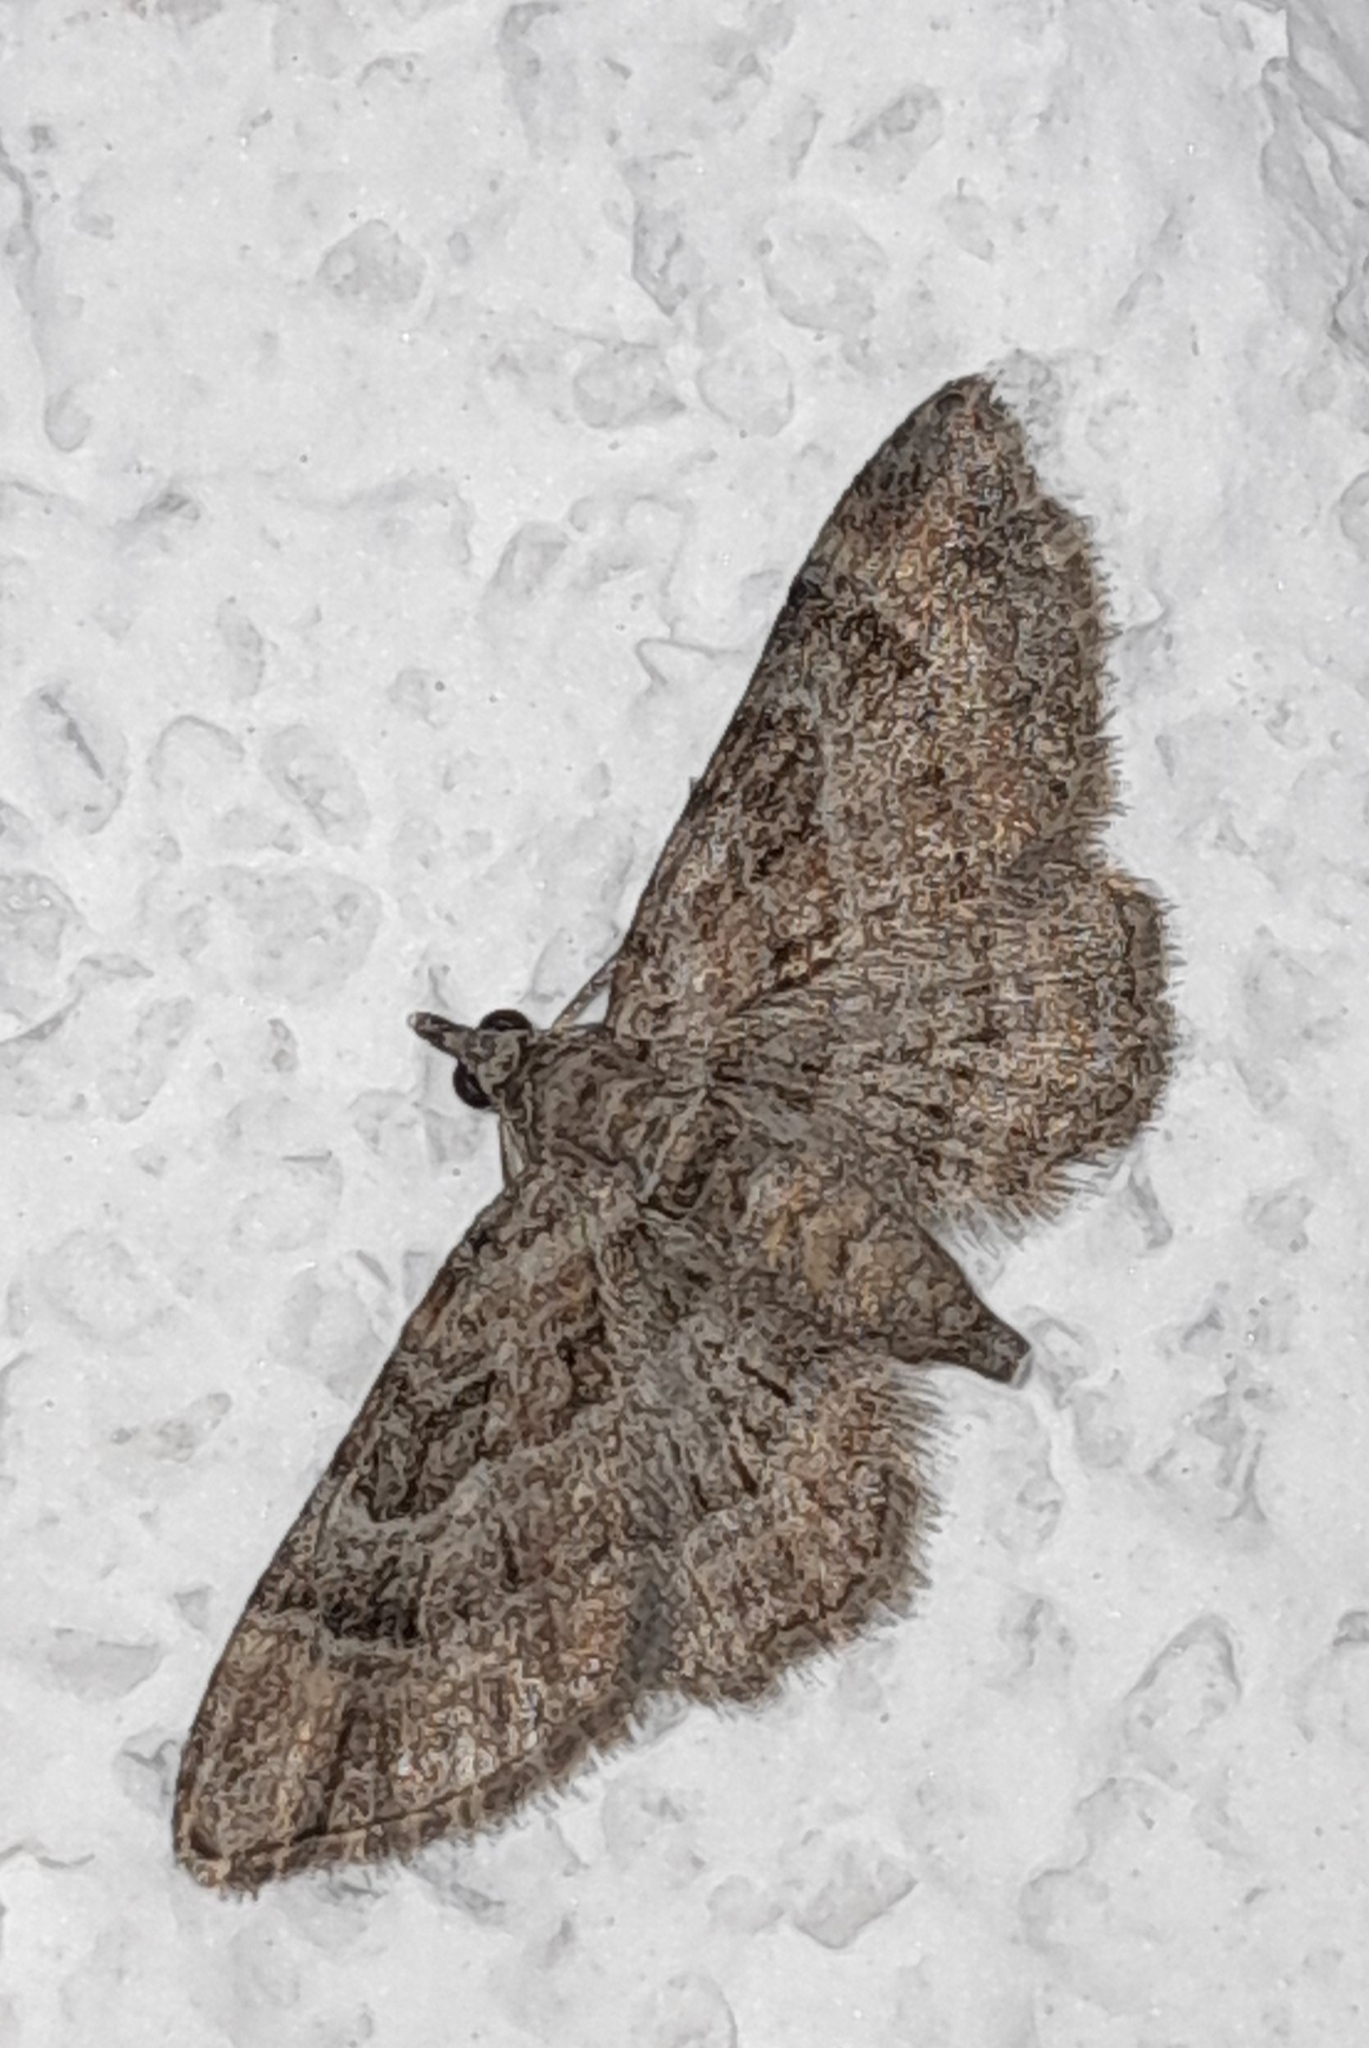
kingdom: Animalia
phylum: Arthropoda
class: Insecta
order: Lepidoptera
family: Geometridae
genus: Gymnoscelis
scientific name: Gymnoscelis rufifasciata
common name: Double-striped pug
